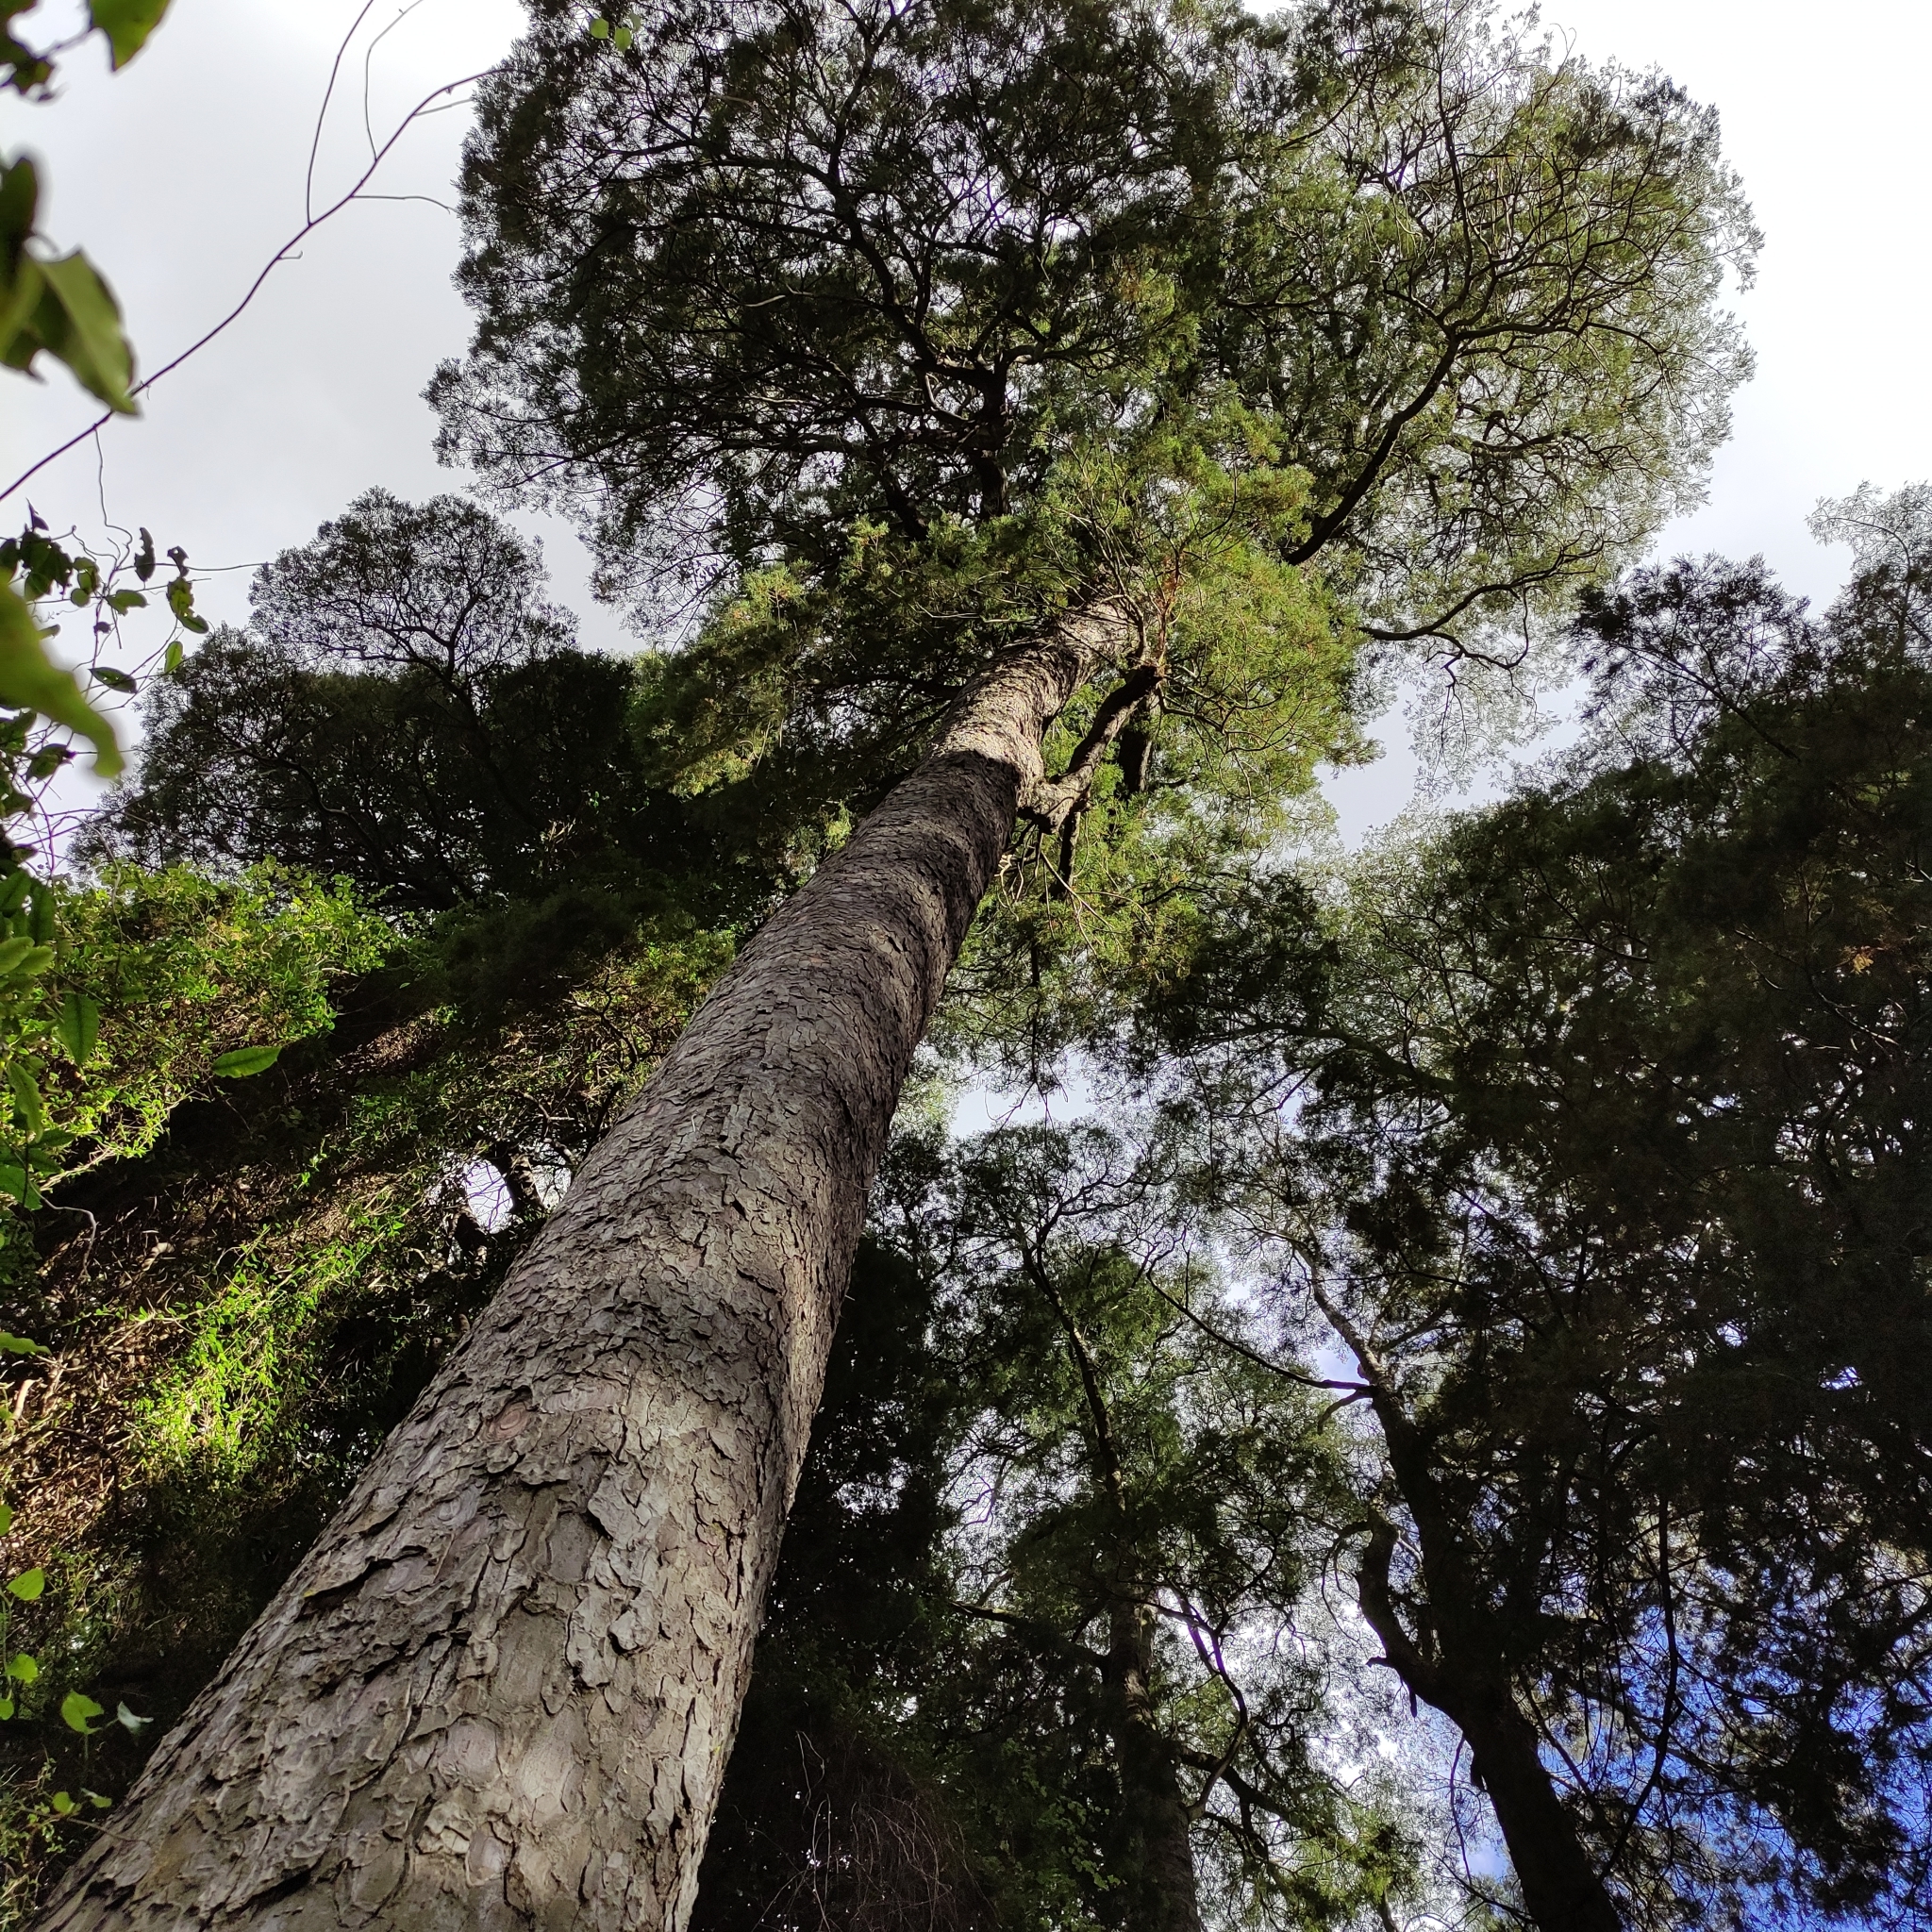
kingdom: Plantae
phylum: Tracheophyta
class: Pinopsida
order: Pinales
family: Podocarpaceae
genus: Dacrycarpus
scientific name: Dacrycarpus dacrydioides
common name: White pine
